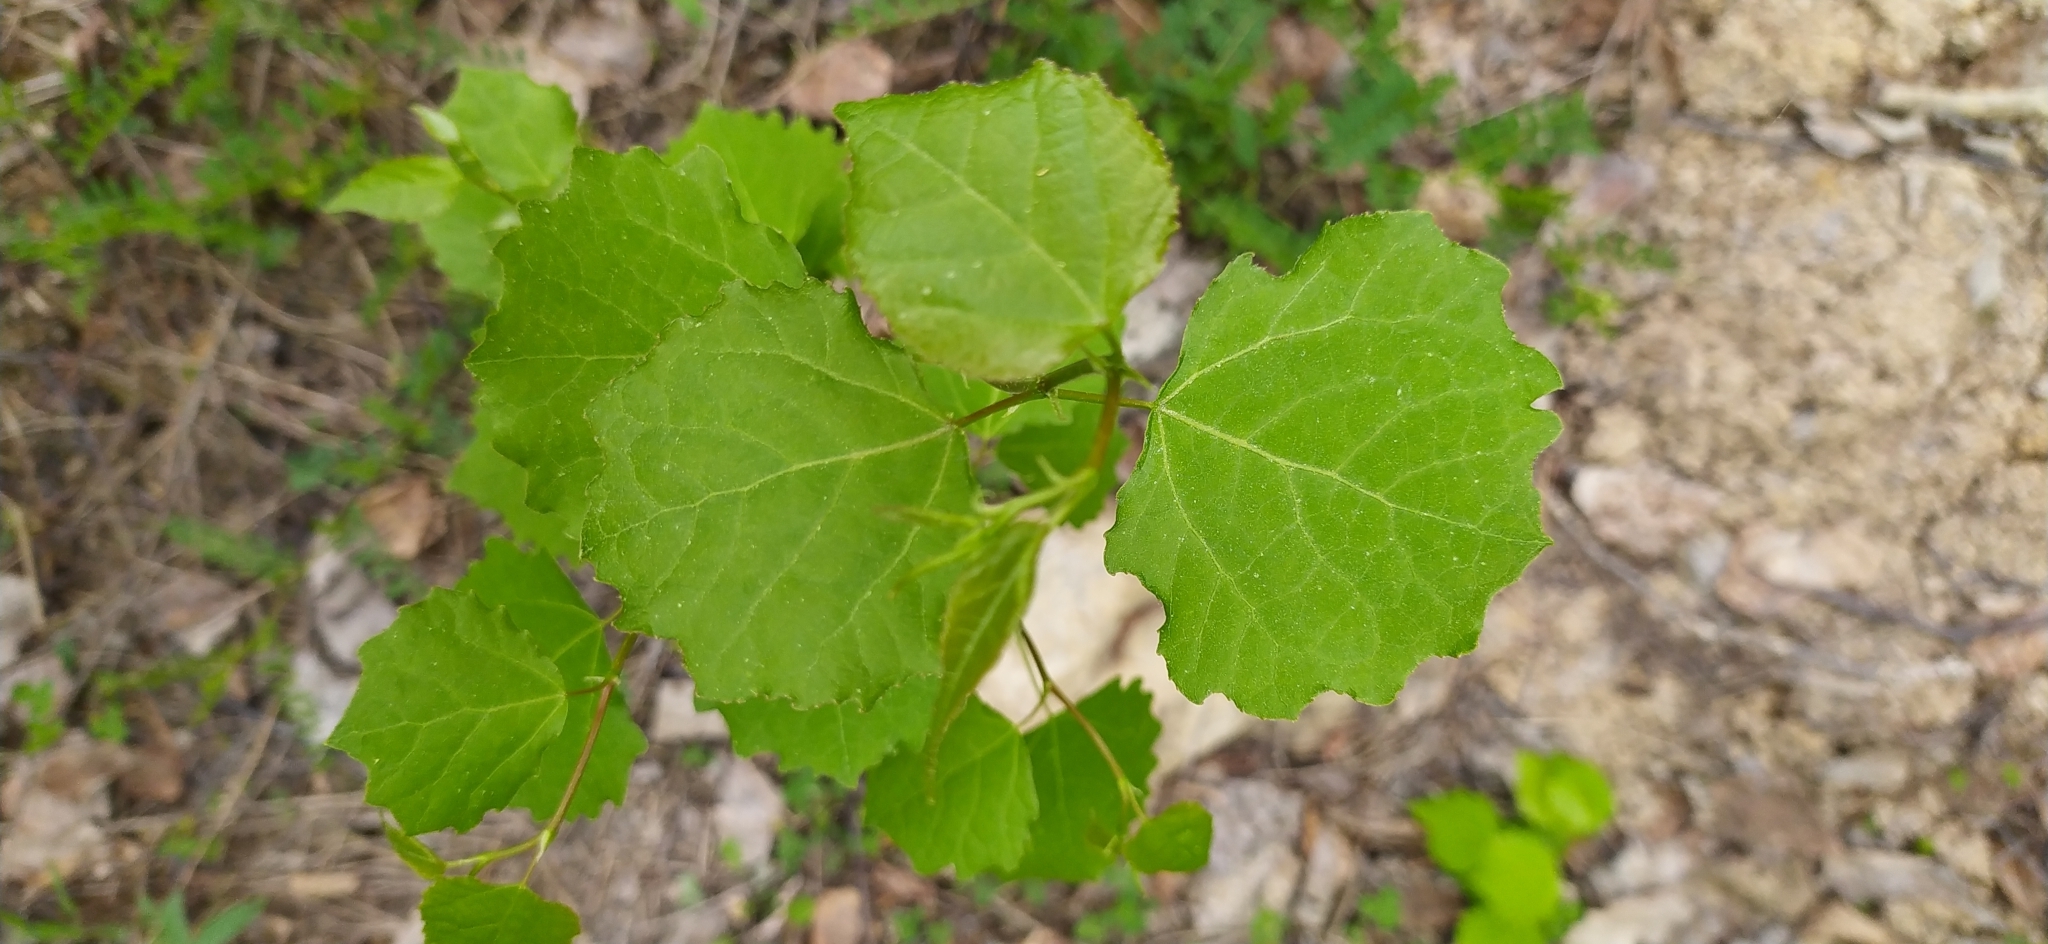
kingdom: Plantae
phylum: Tracheophyta
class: Magnoliopsida
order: Malpighiales
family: Salicaceae
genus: Populus
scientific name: Populus tremula
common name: European aspen
